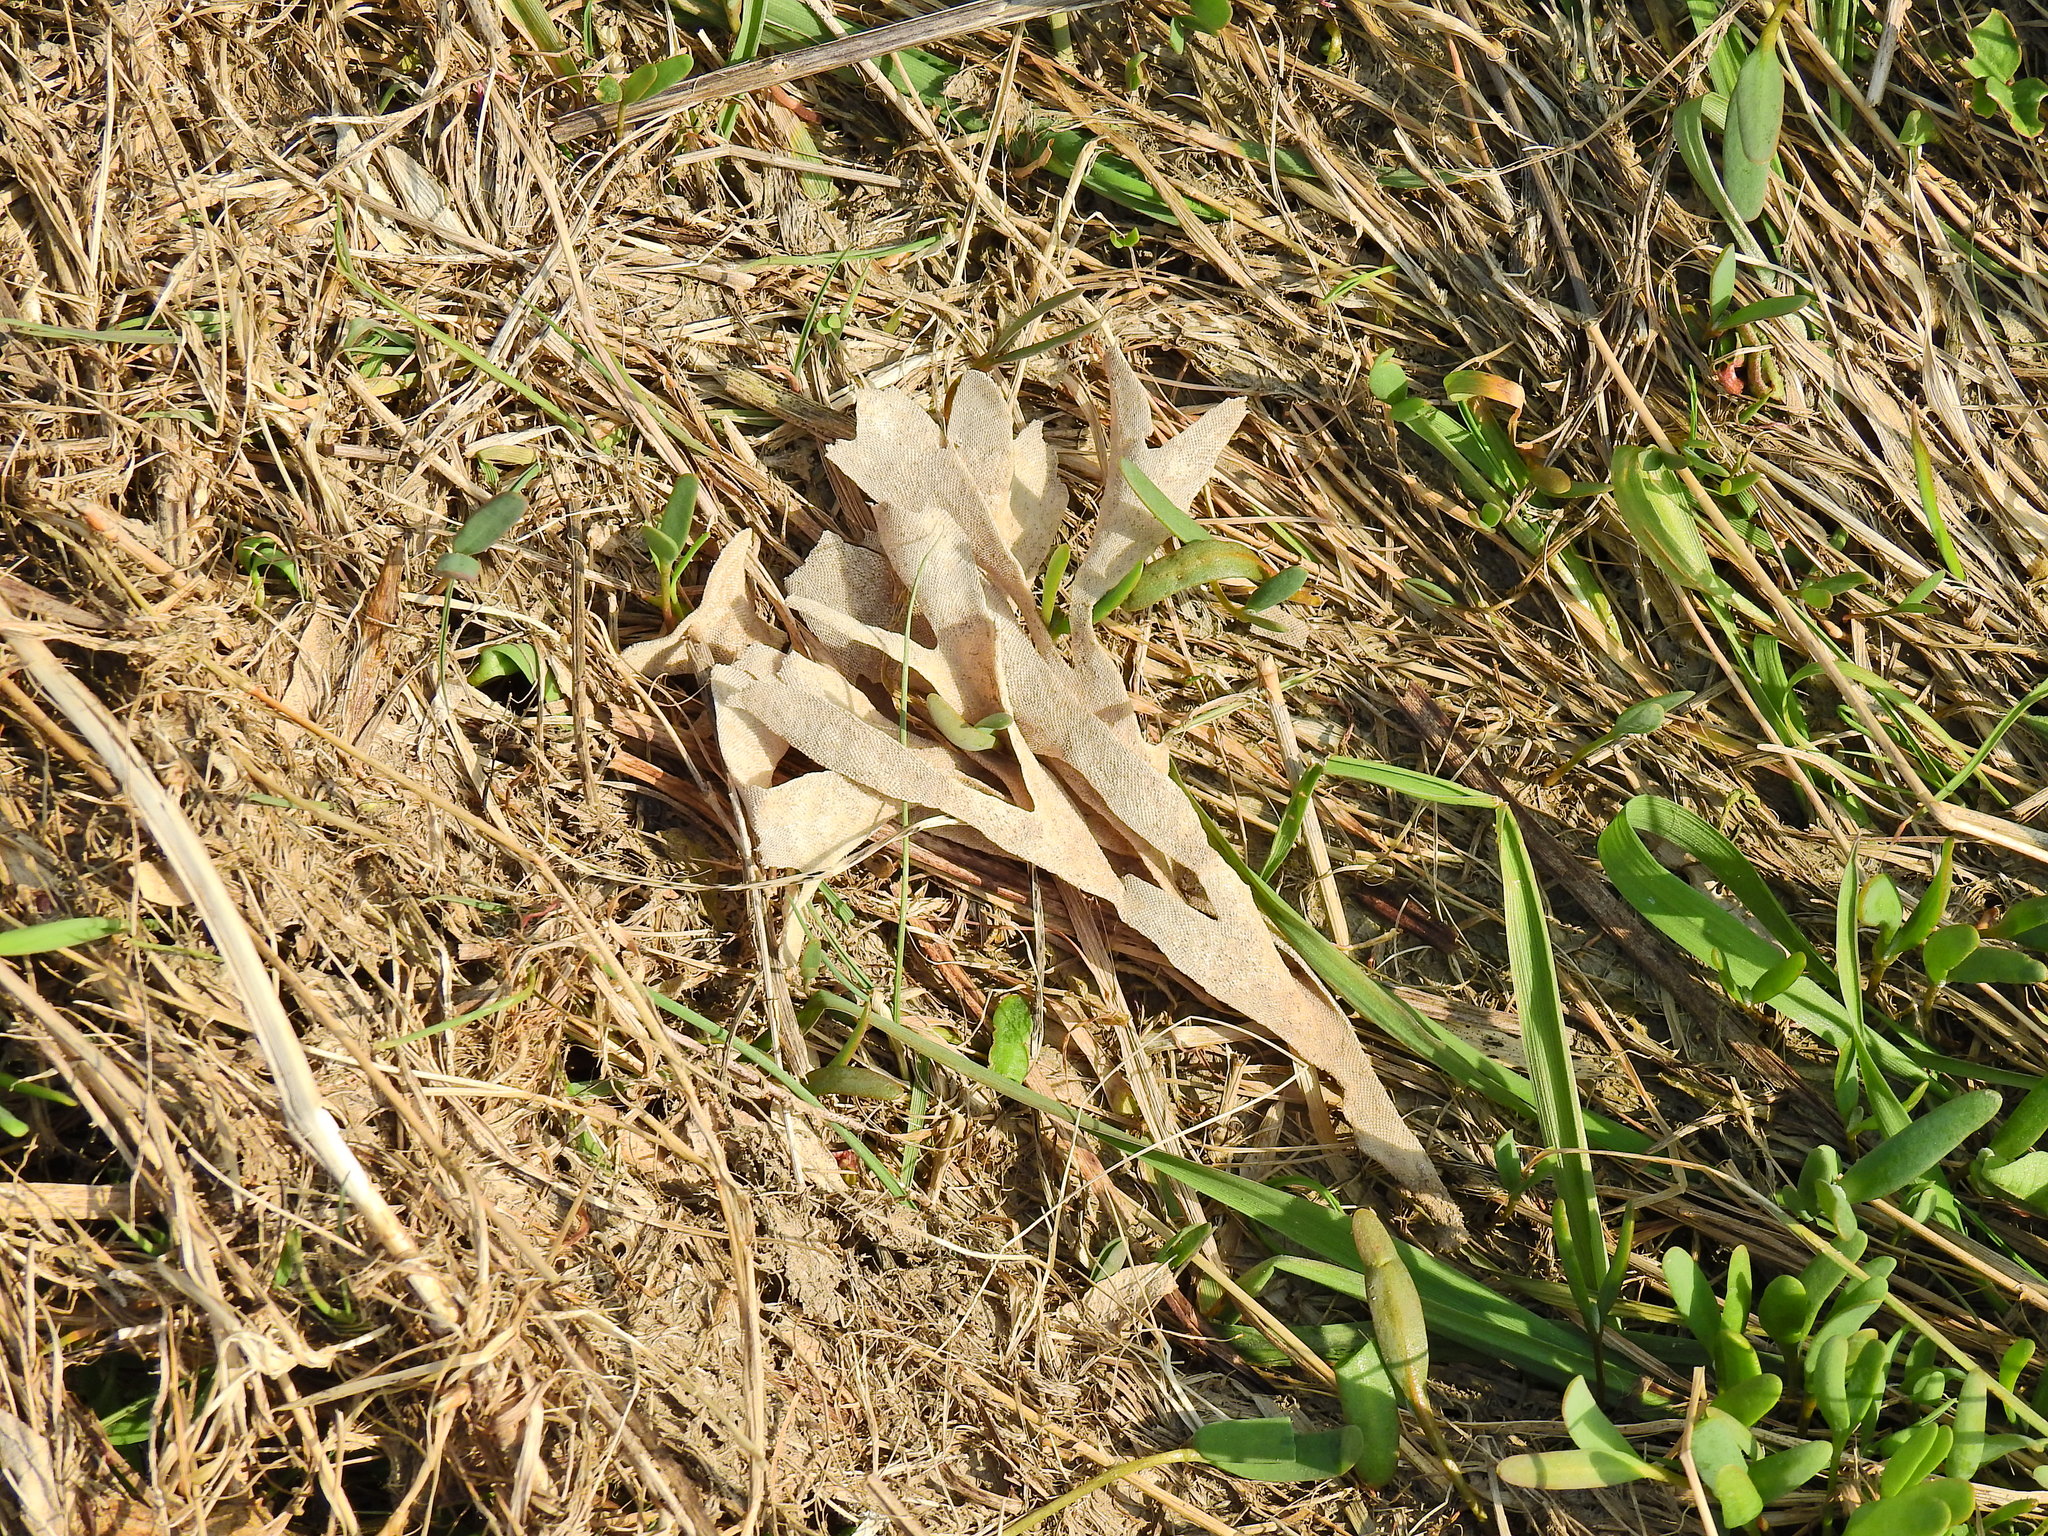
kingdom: Animalia
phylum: Bryozoa
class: Gymnolaemata
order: Cheilostomatida
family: Flustridae
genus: Flustra
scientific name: Flustra foliacea
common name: Hornwrack
